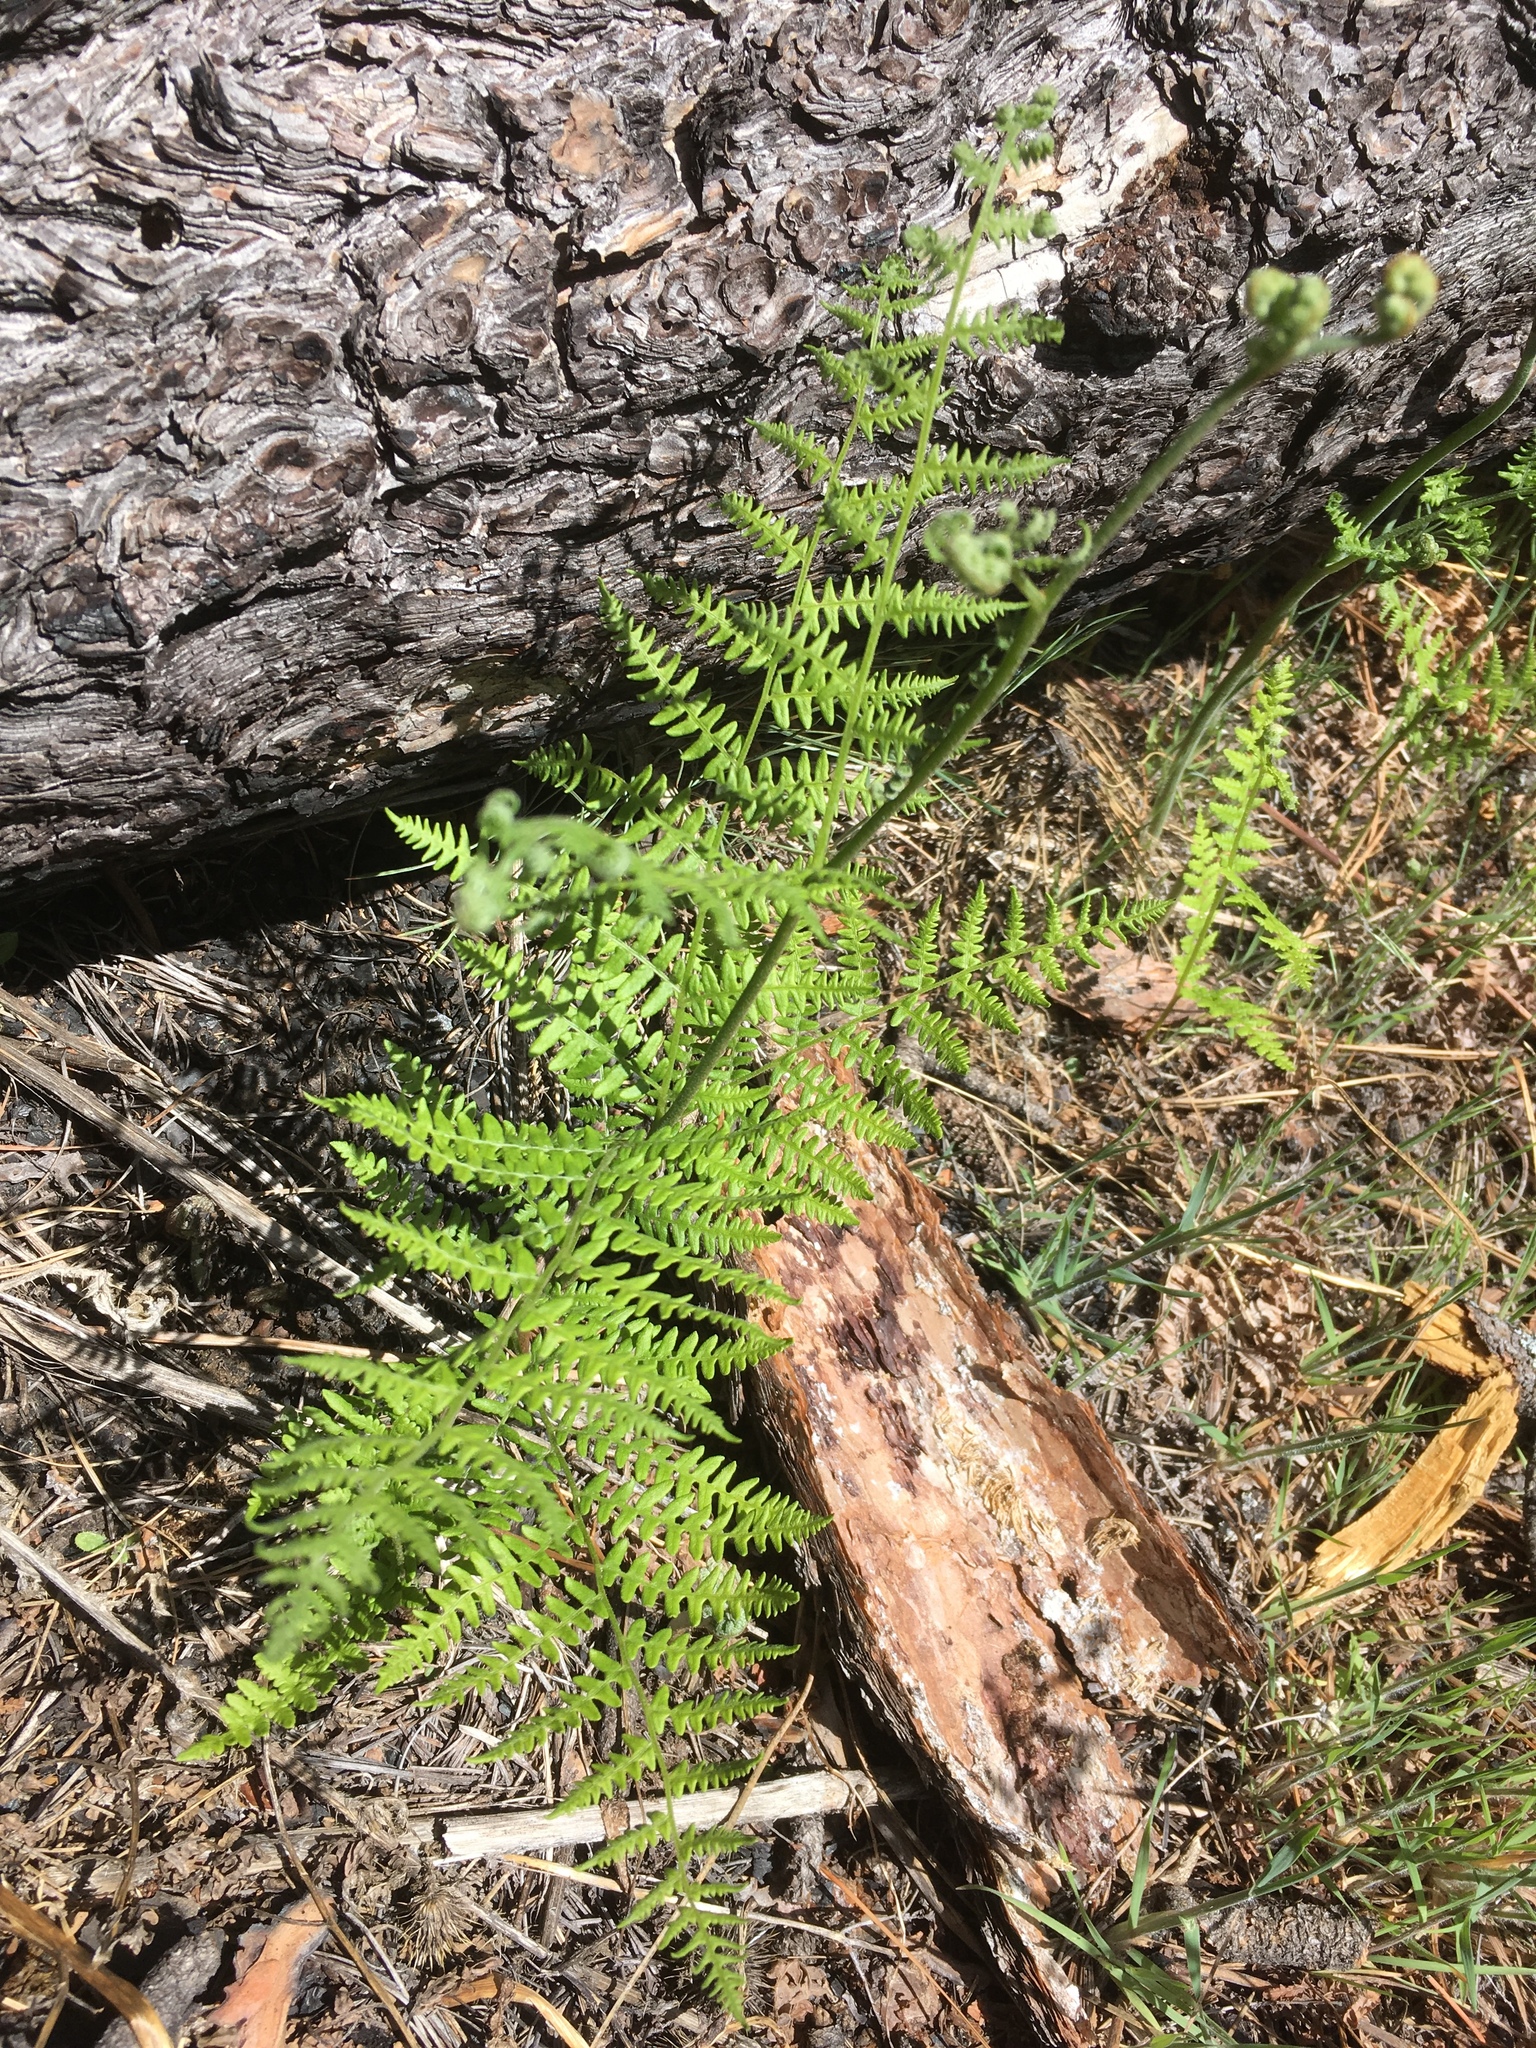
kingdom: Plantae
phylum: Tracheophyta
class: Polypodiopsida
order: Polypodiales
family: Dennstaedtiaceae
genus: Pteridium
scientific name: Pteridium aquilinum
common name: Bracken
